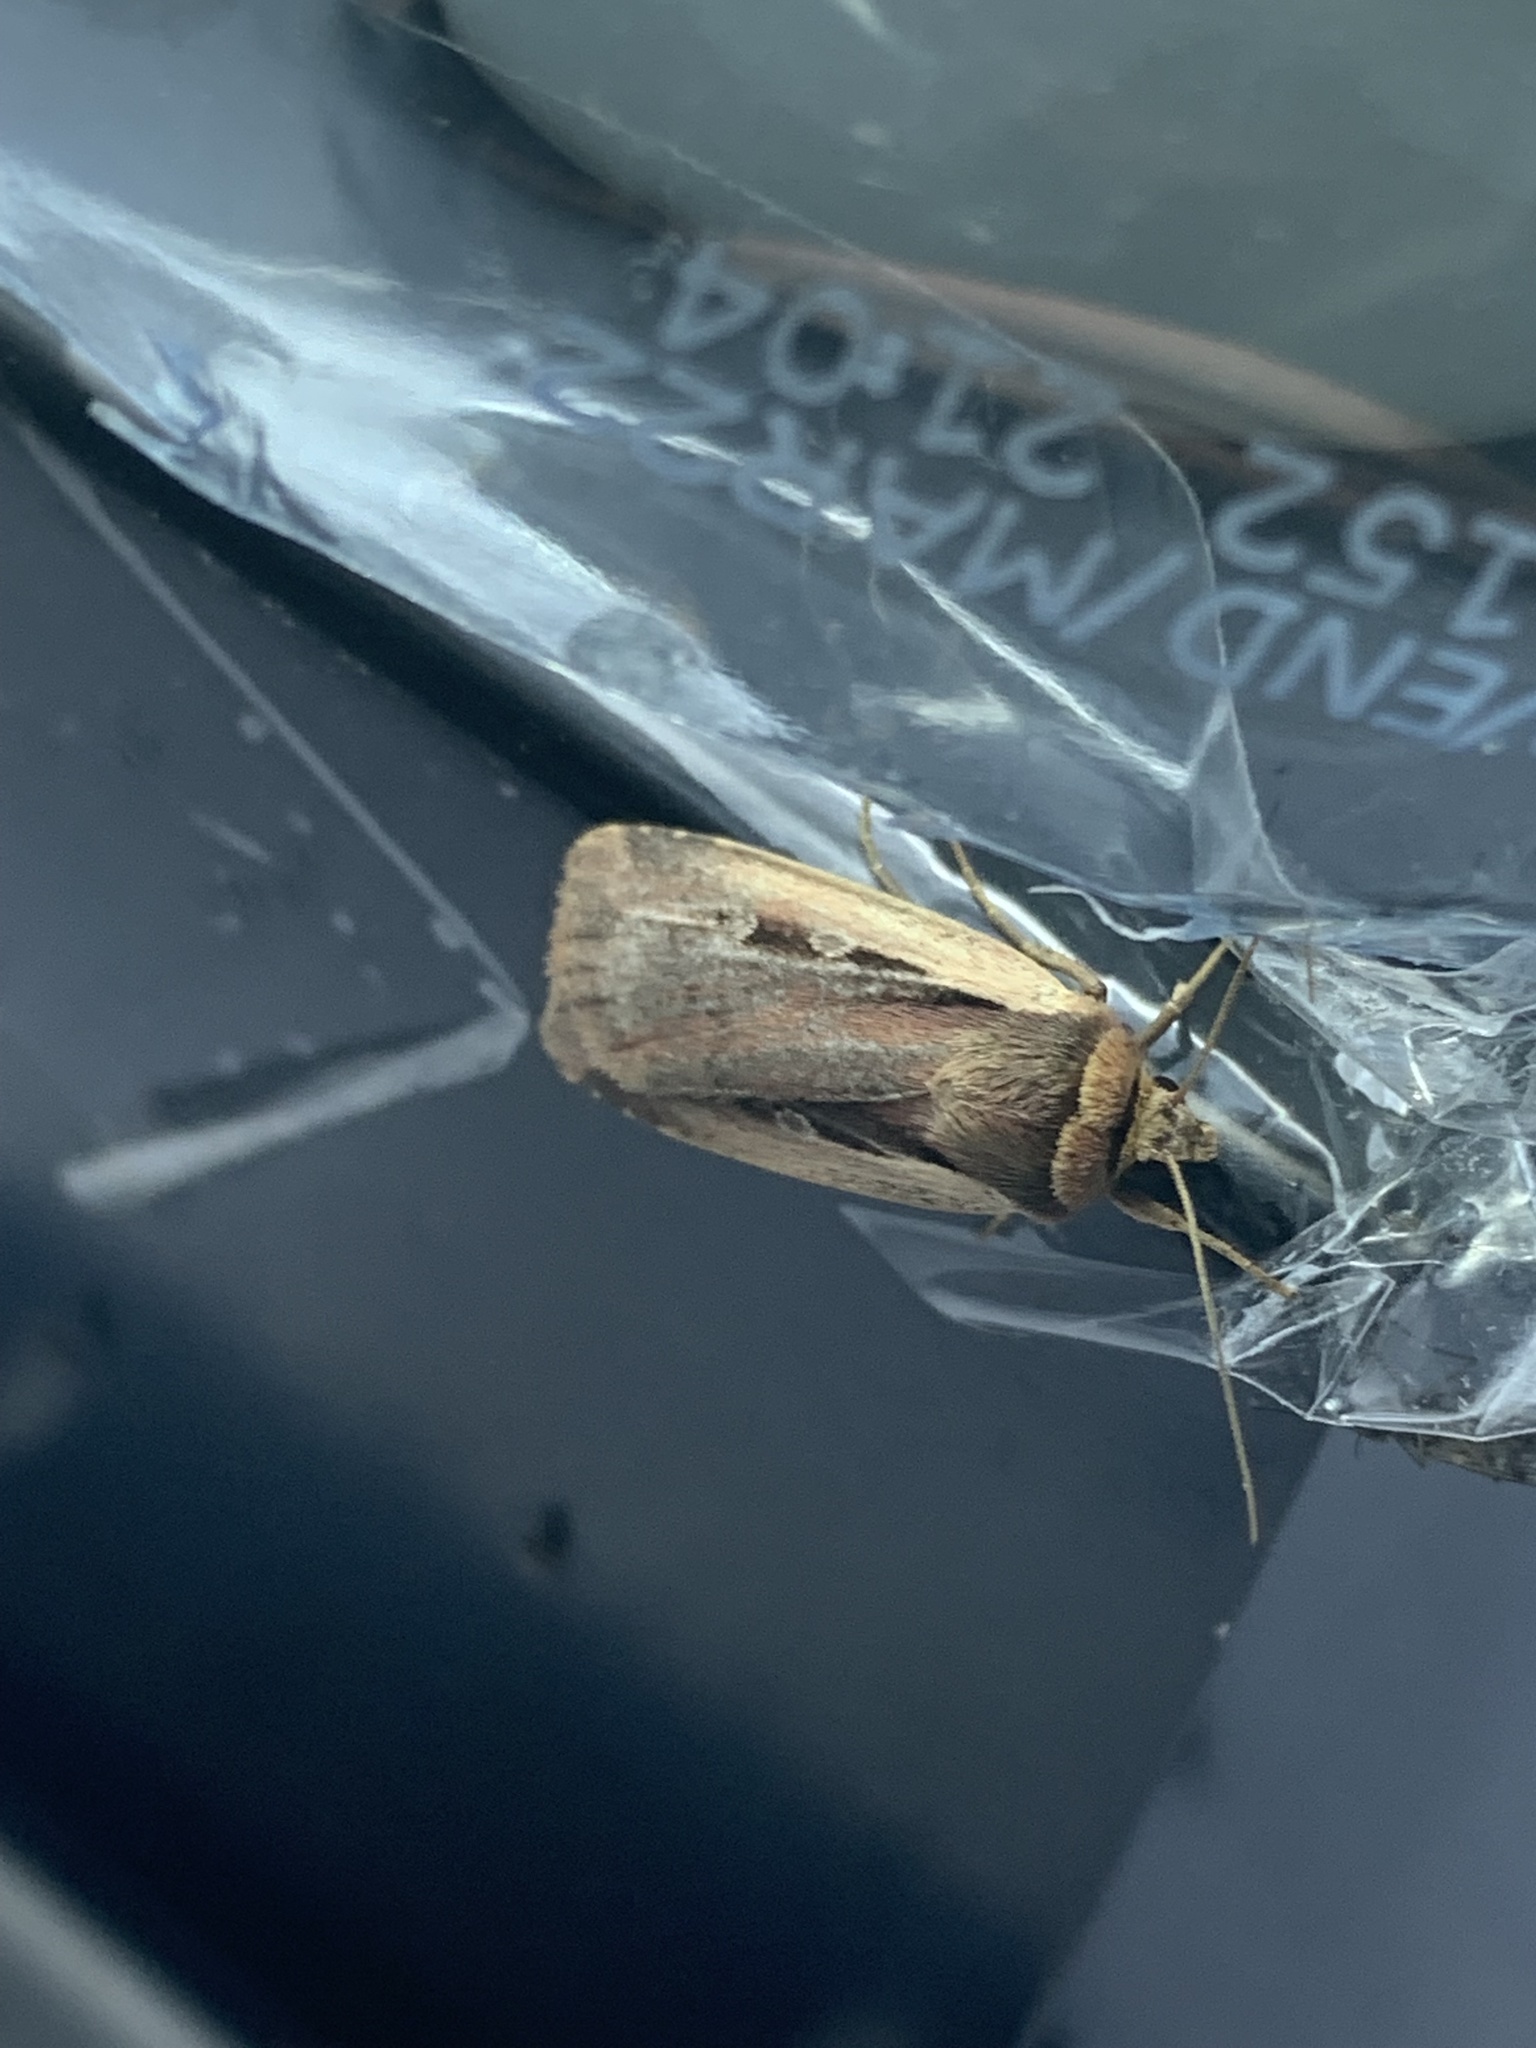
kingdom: Animalia
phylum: Arthropoda
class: Insecta
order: Lepidoptera
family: Noctuidae
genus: Ochropleura
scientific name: Ochropleura plecta
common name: Flame shoulder
